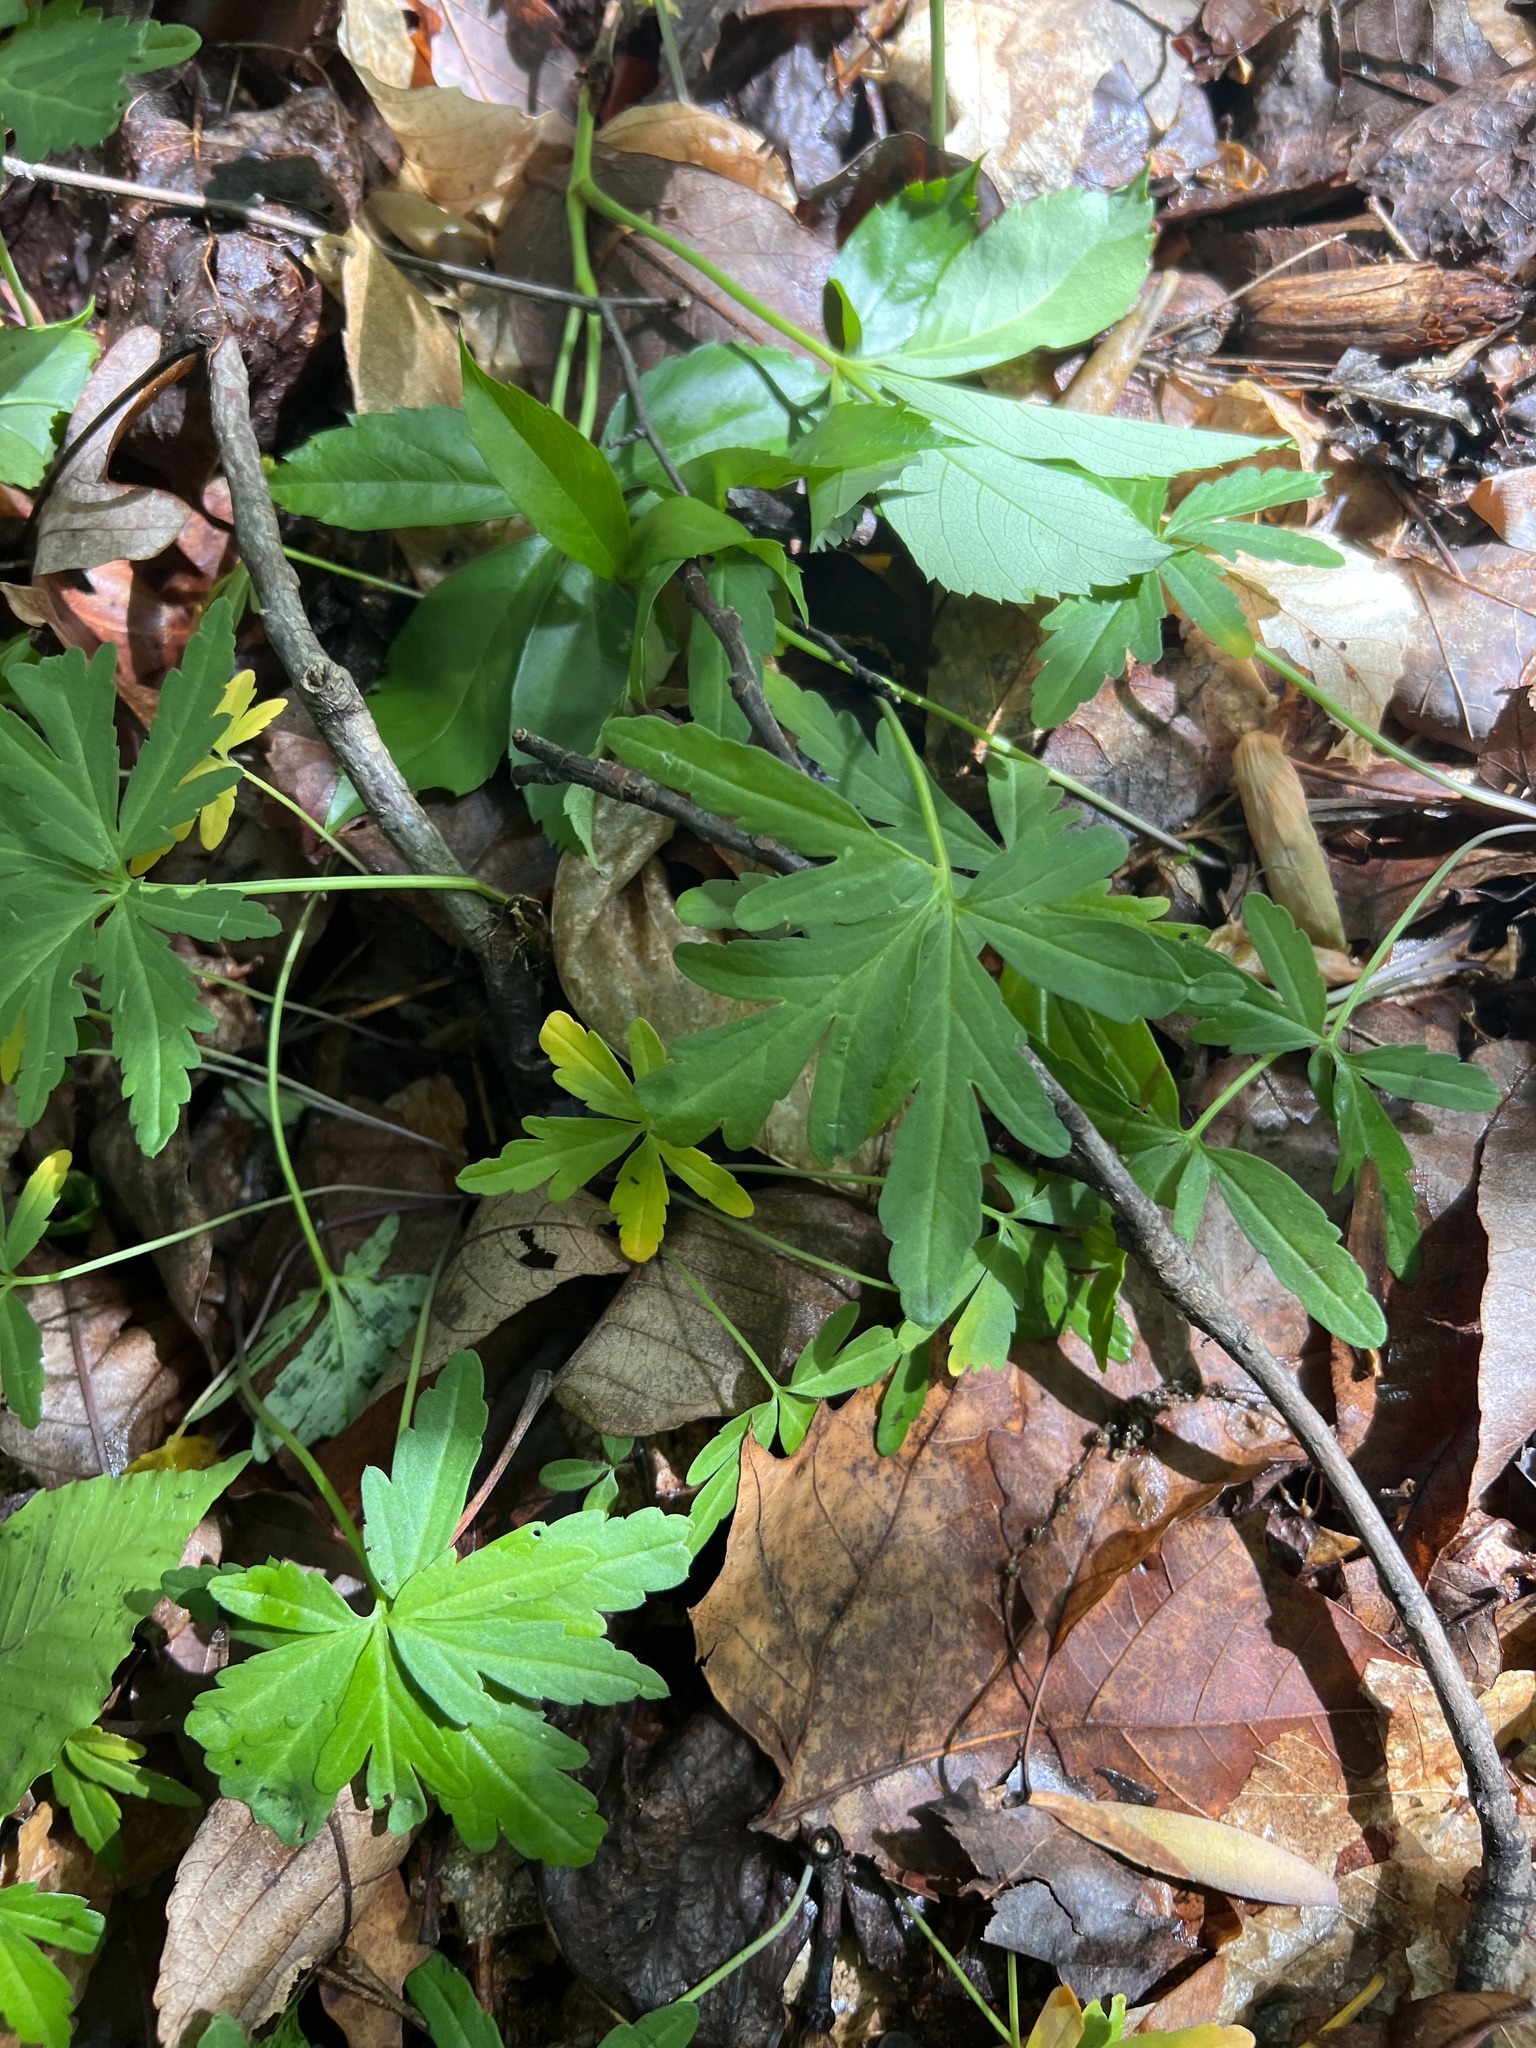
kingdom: Plantae
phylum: Tracheophyta
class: Magnoliopsida
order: Brassicales
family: Brassicaceae
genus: Cardamine
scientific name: Cardamine concatenata
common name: Cut-leaf toothcup
